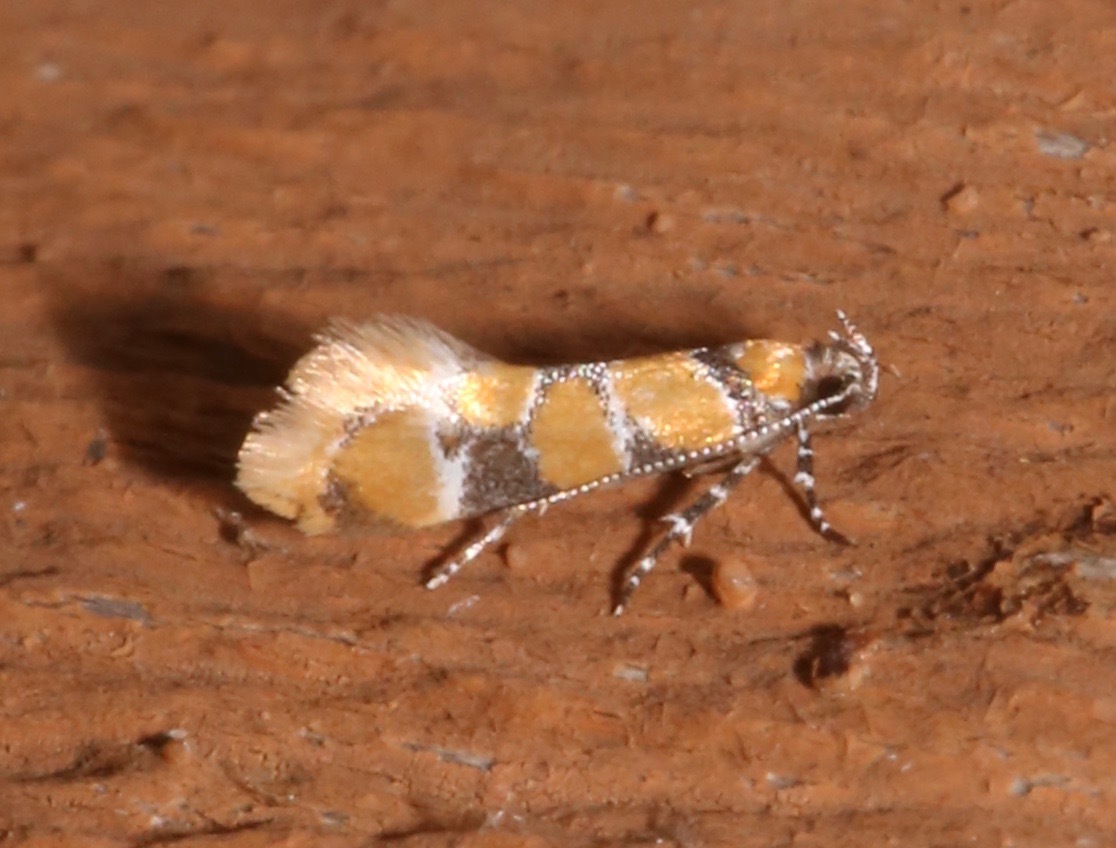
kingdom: Animalia
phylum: Arthropoda
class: Insecta
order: Lepidoptera
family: Oecophoridae
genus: Decantha
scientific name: Decantha borkhausenii
